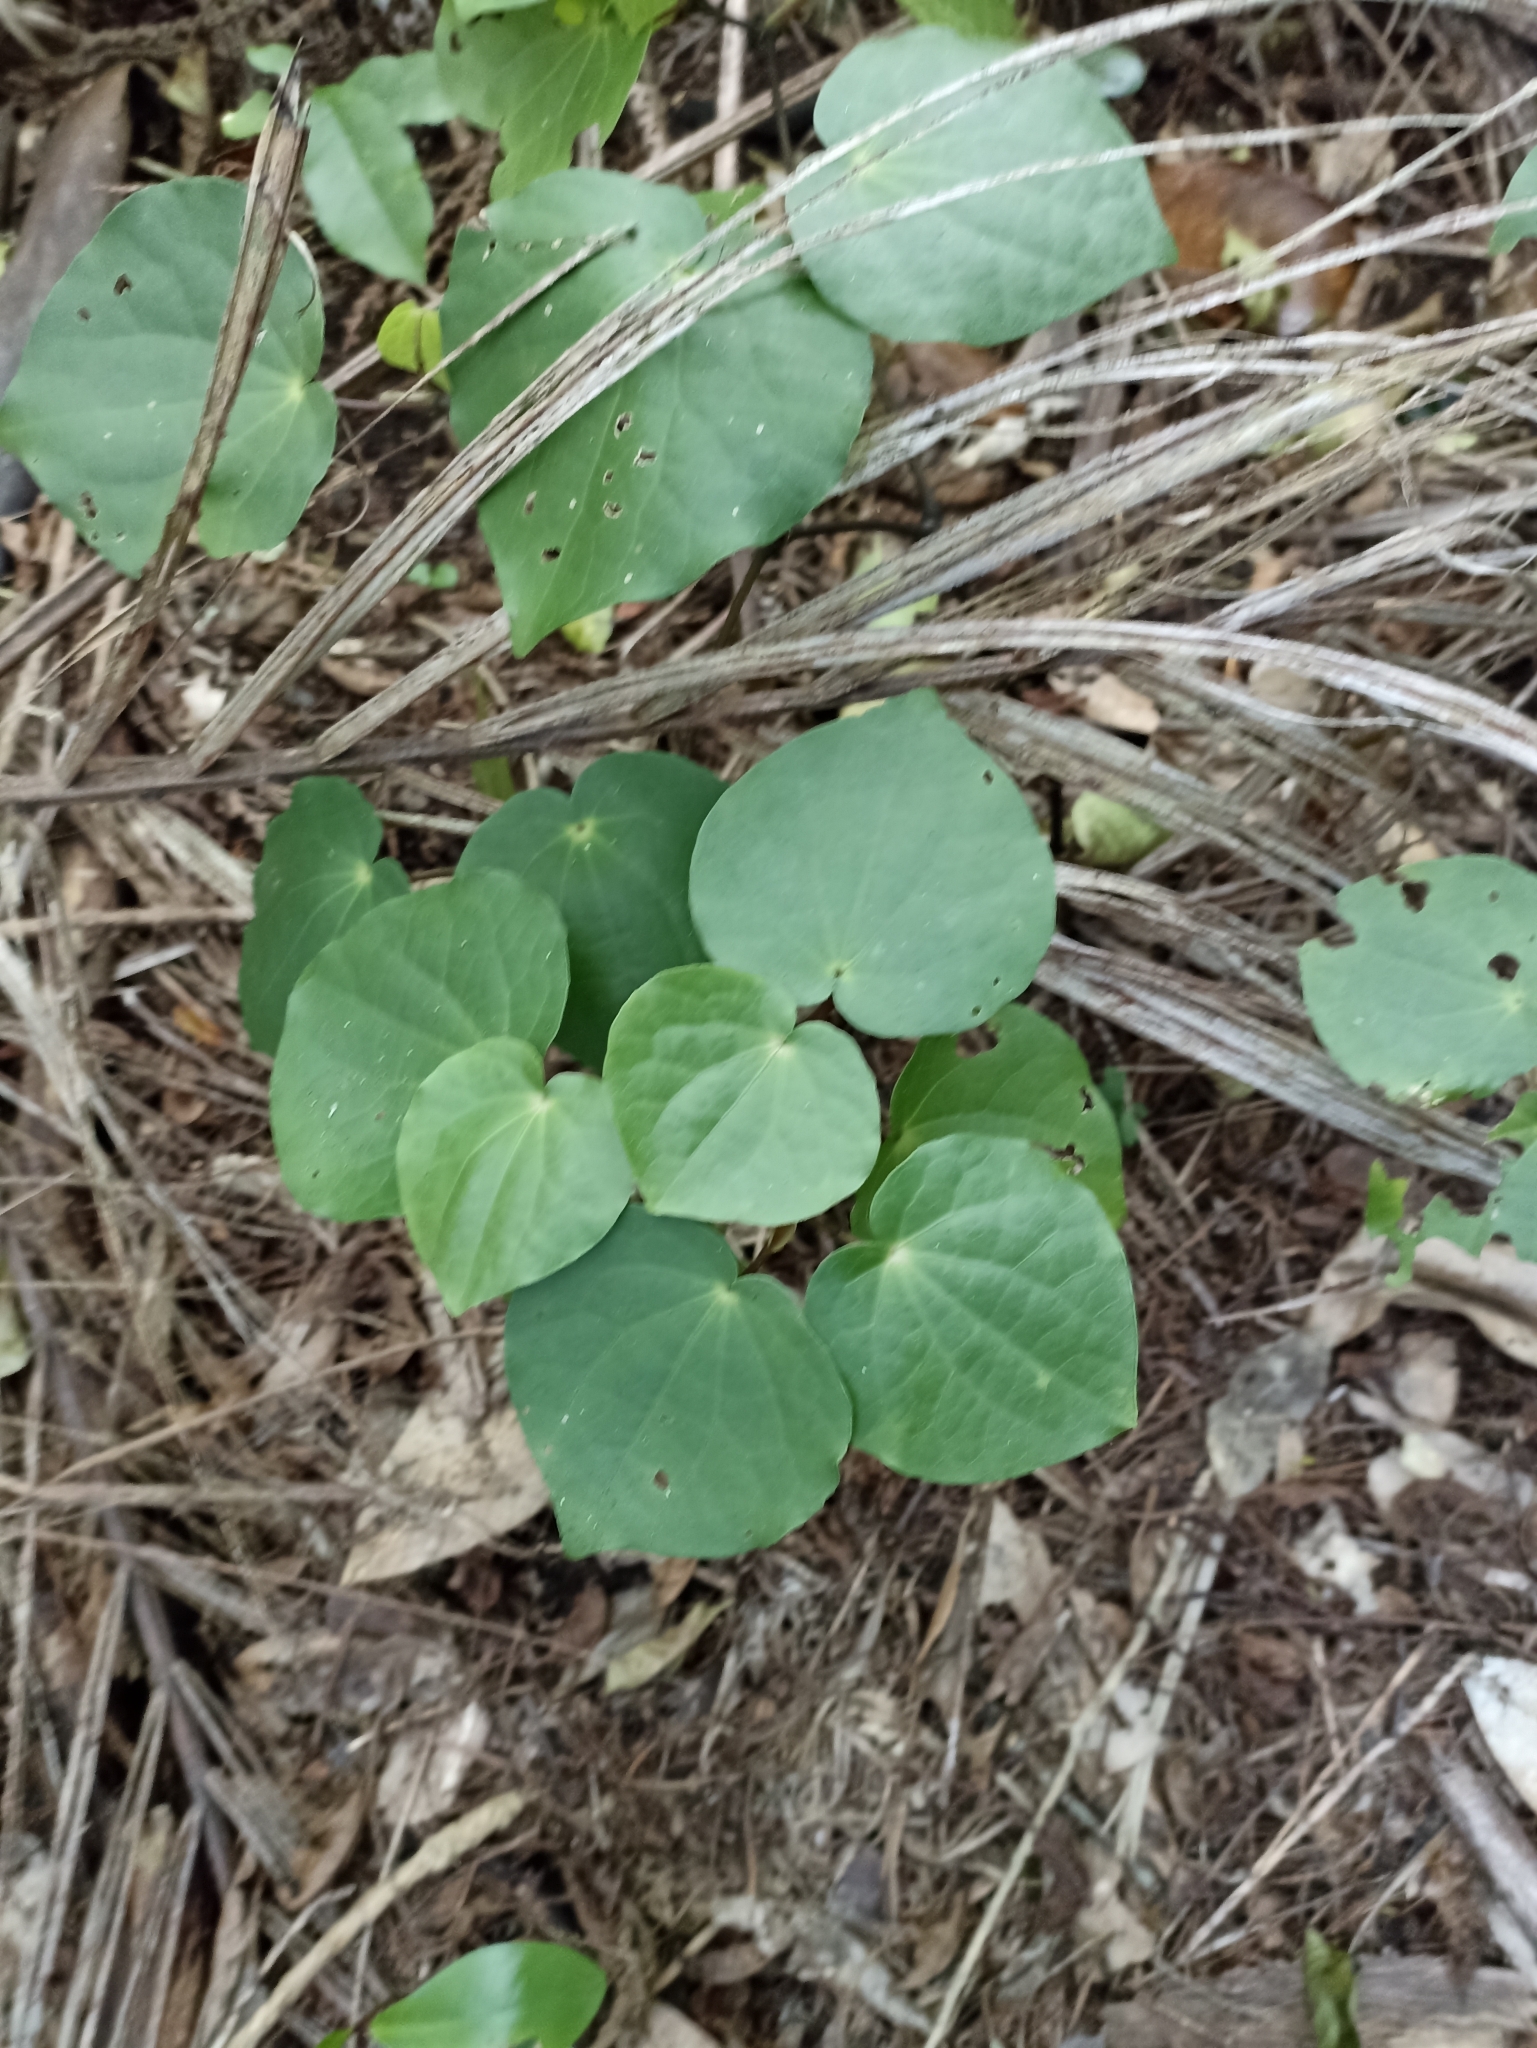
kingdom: Plantae
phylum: Tracheophyta
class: Magnoliopsida
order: Piperales
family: Piperaceae
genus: Macropiper
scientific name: Macropiper excelsum
